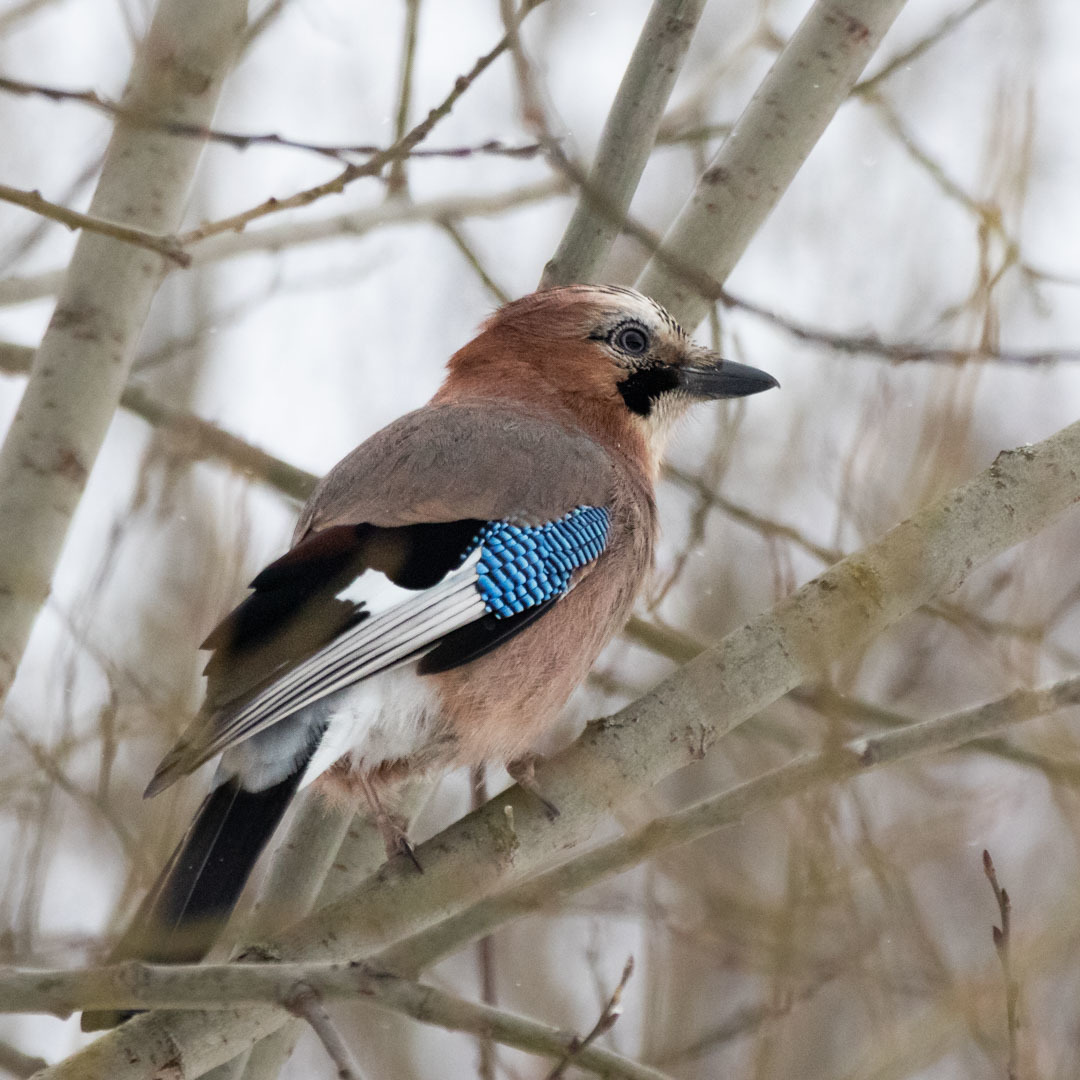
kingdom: Animalia
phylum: Chordata
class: Aves
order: Passeriformes
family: Corvidae
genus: Garrulus
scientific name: Garrulus glandarius
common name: Eurasian jay
